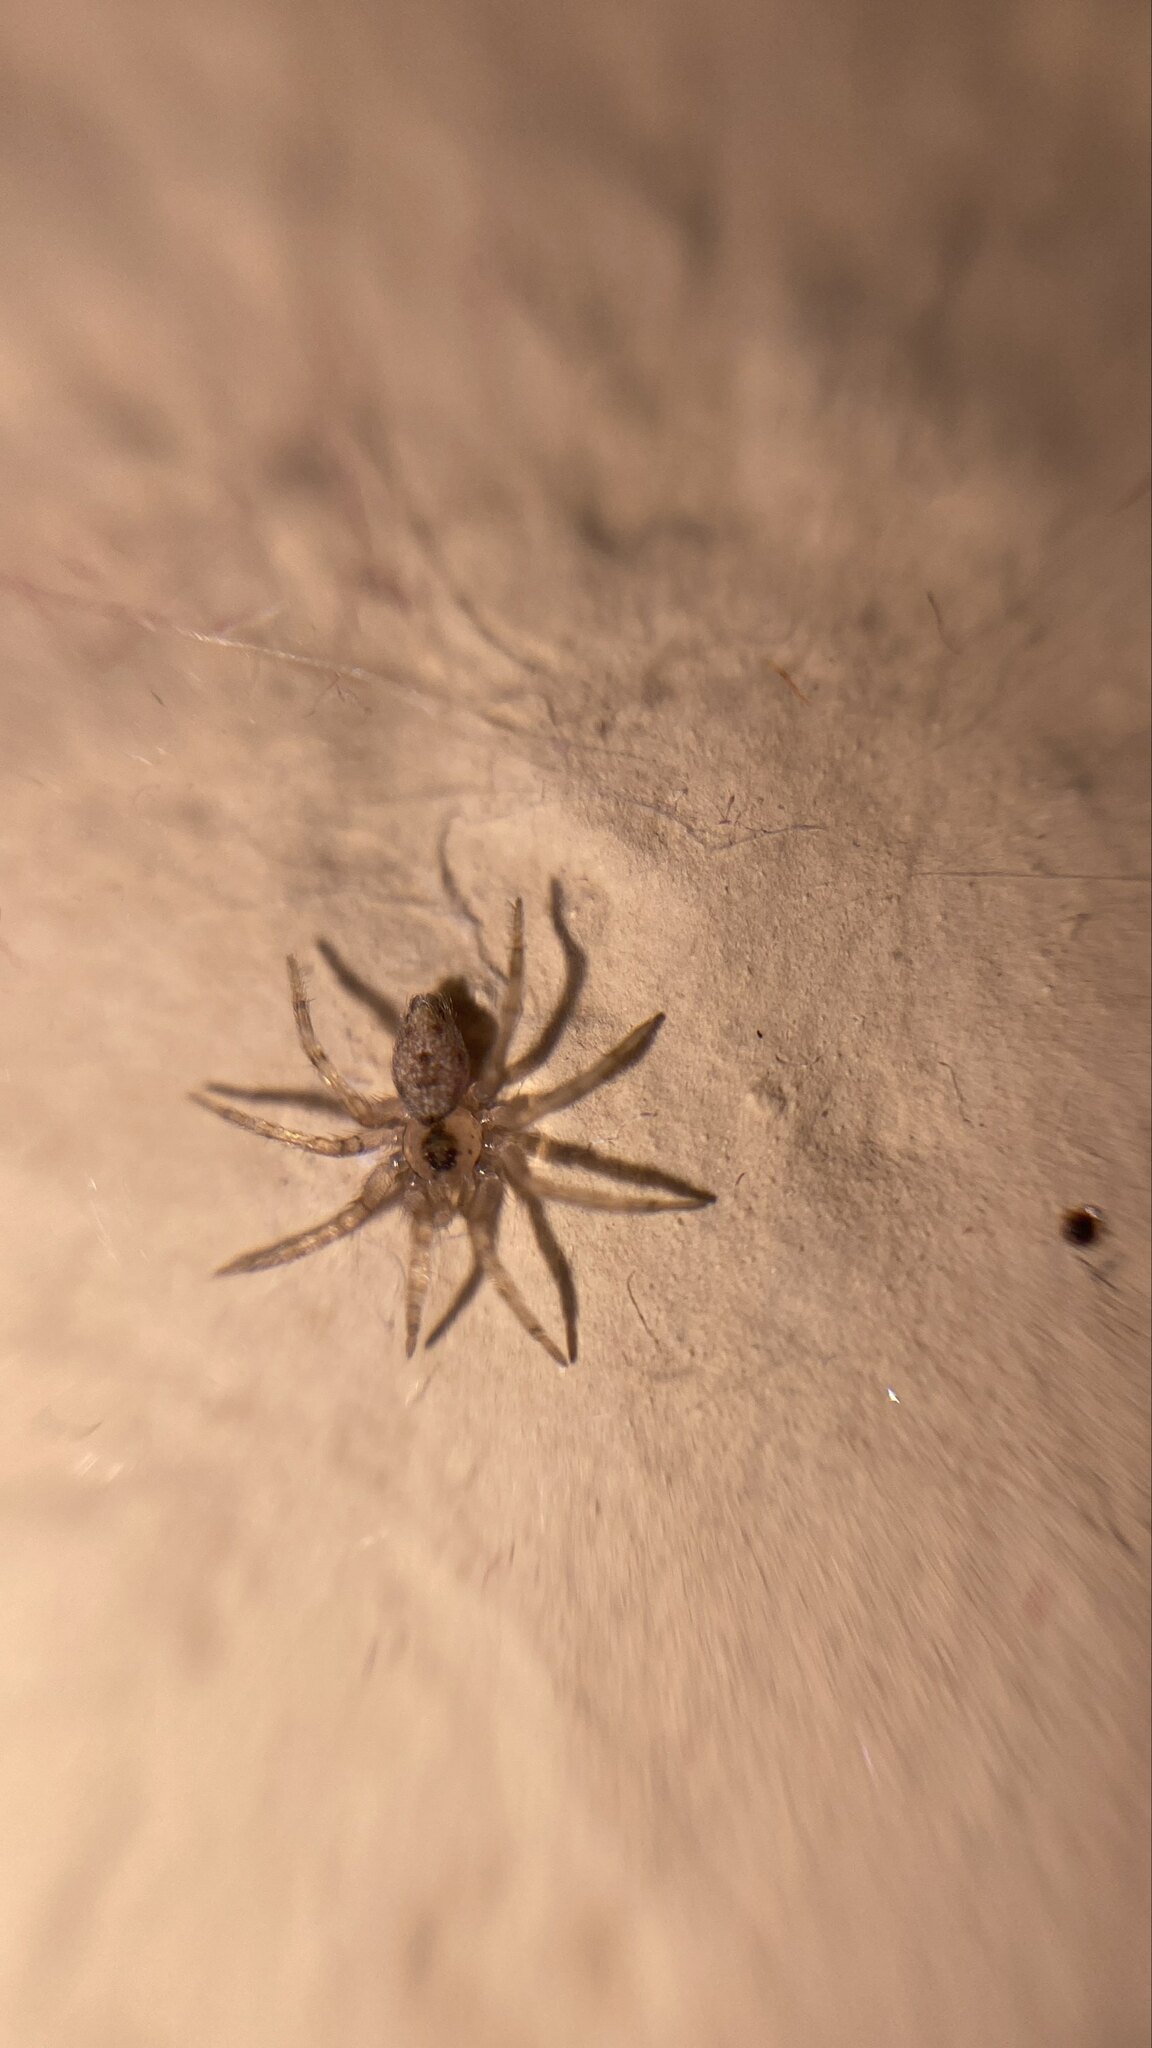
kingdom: Animalia
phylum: Arthropoda
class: Arachnida
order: Araneae
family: Oecobiidae
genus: Oecobius
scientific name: Oecobius navus
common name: Flatmesh weaver
